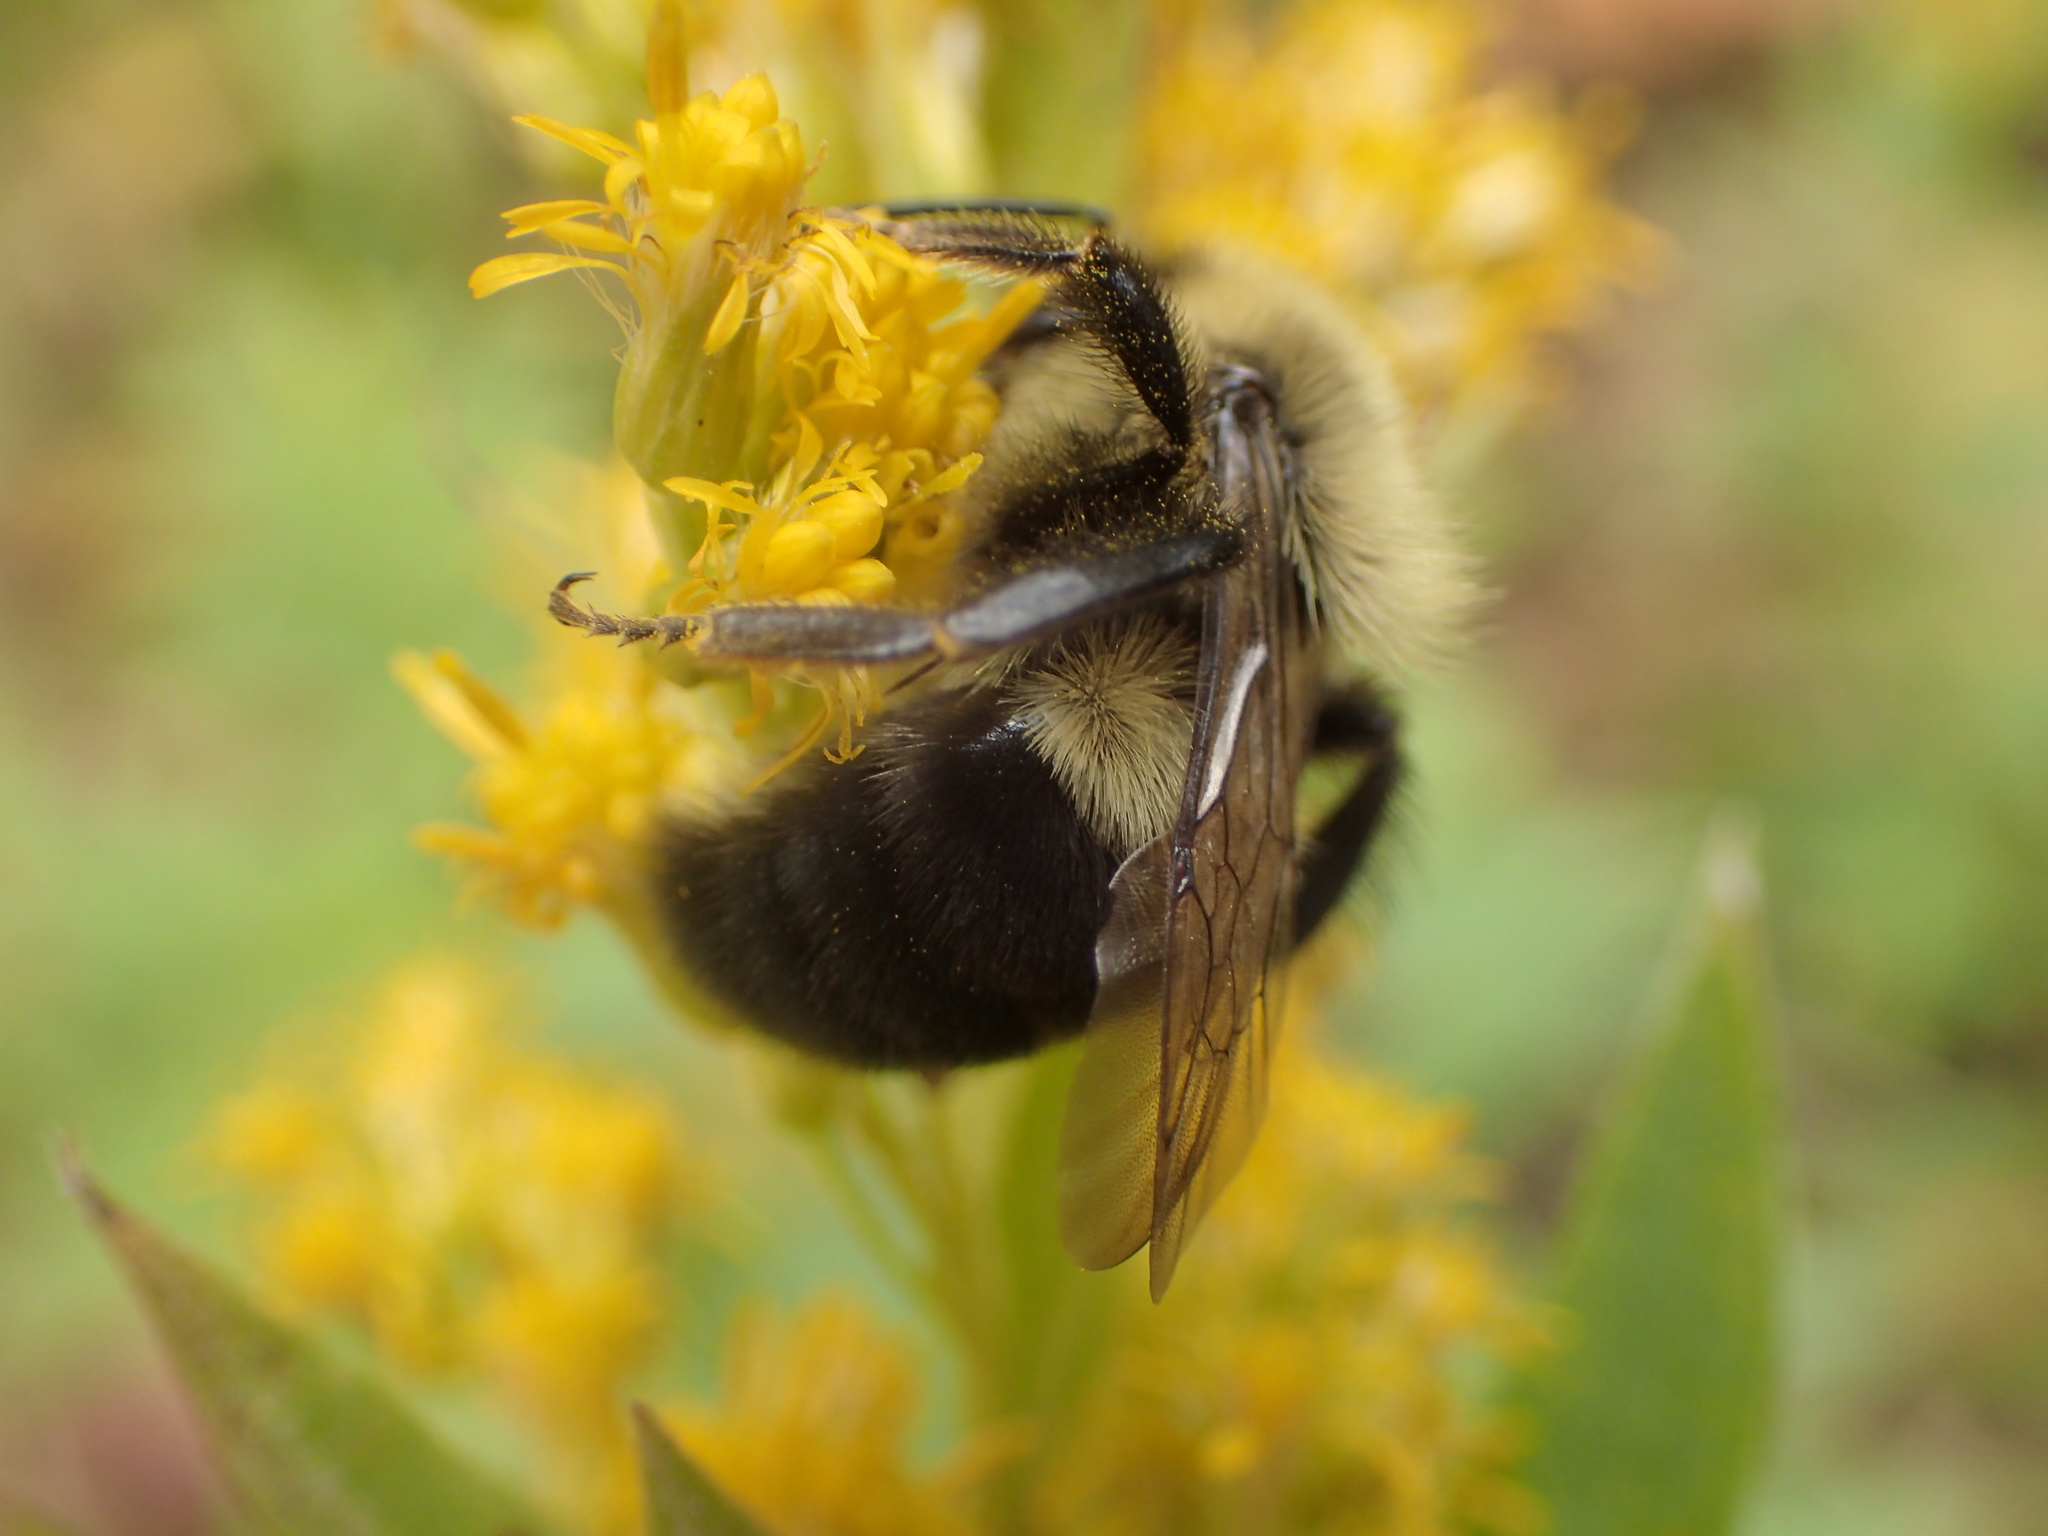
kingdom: Animalia
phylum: Arthropoda
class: Insecta
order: Hymenoptera
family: Apidae
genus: Bombus
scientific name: Bombus impatiens
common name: Common eastern bumble bee
